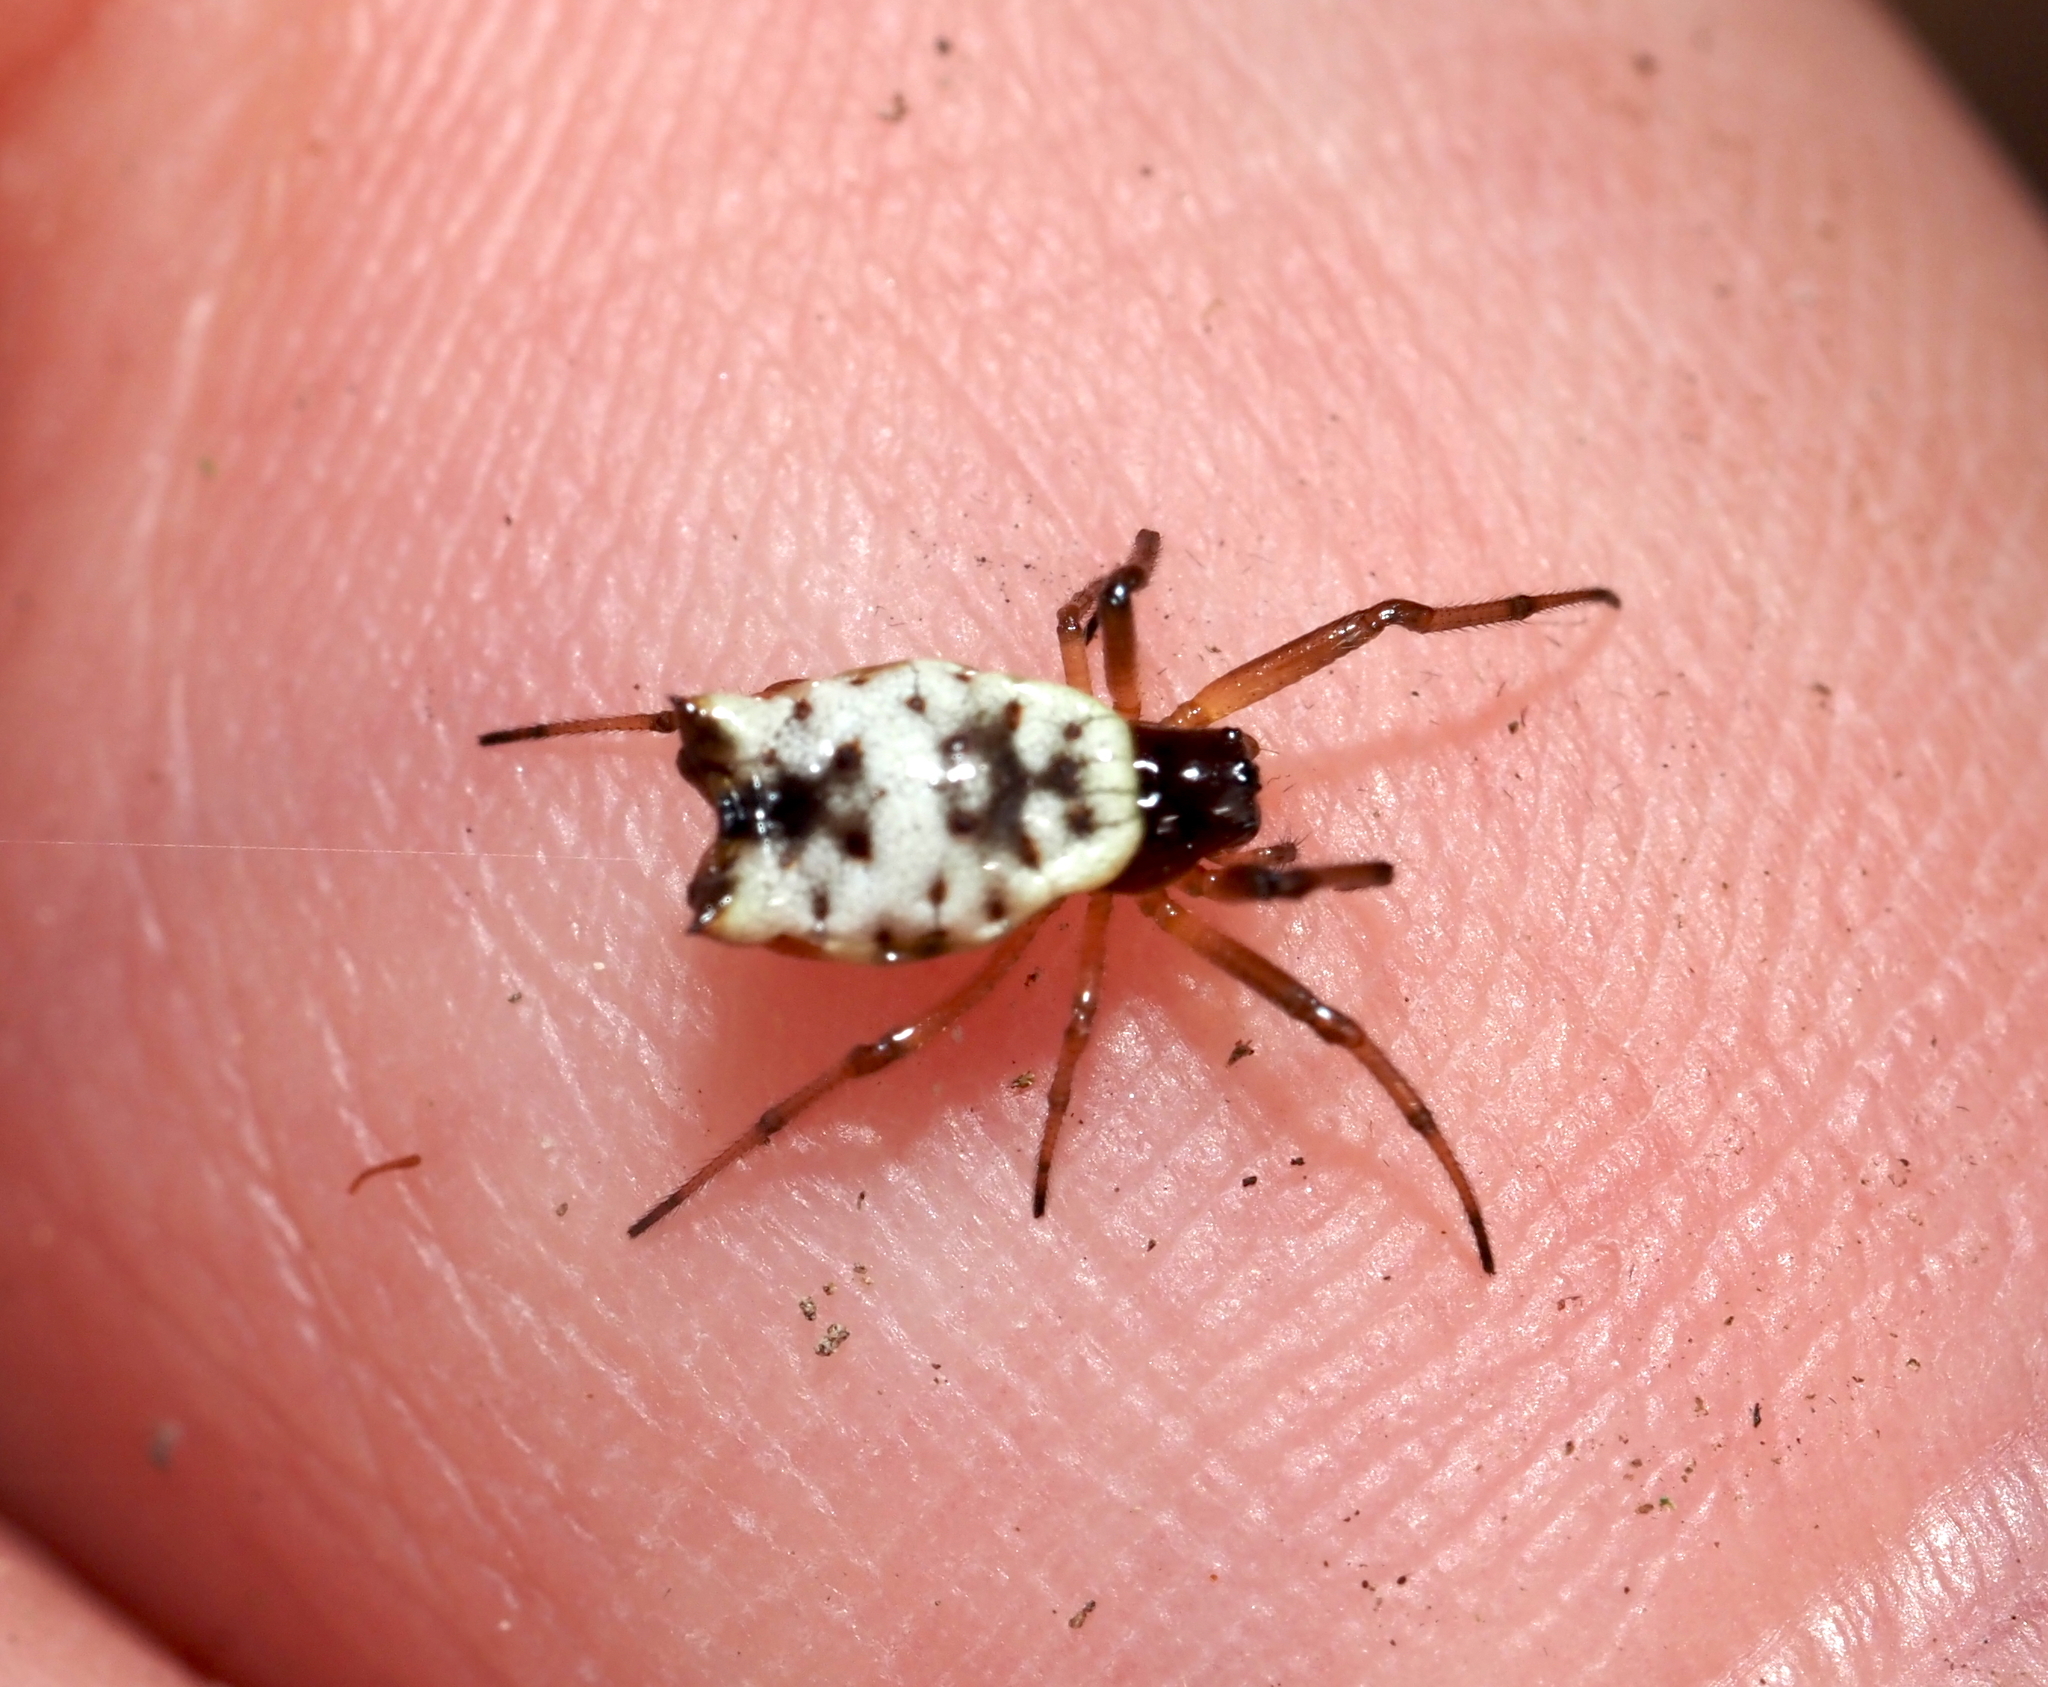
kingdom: Animalia
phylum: Arthropoda
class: Arachnida
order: Araneae
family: Araneidae
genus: Micrathena
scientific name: Micrathena mitrata
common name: Orb weavers
